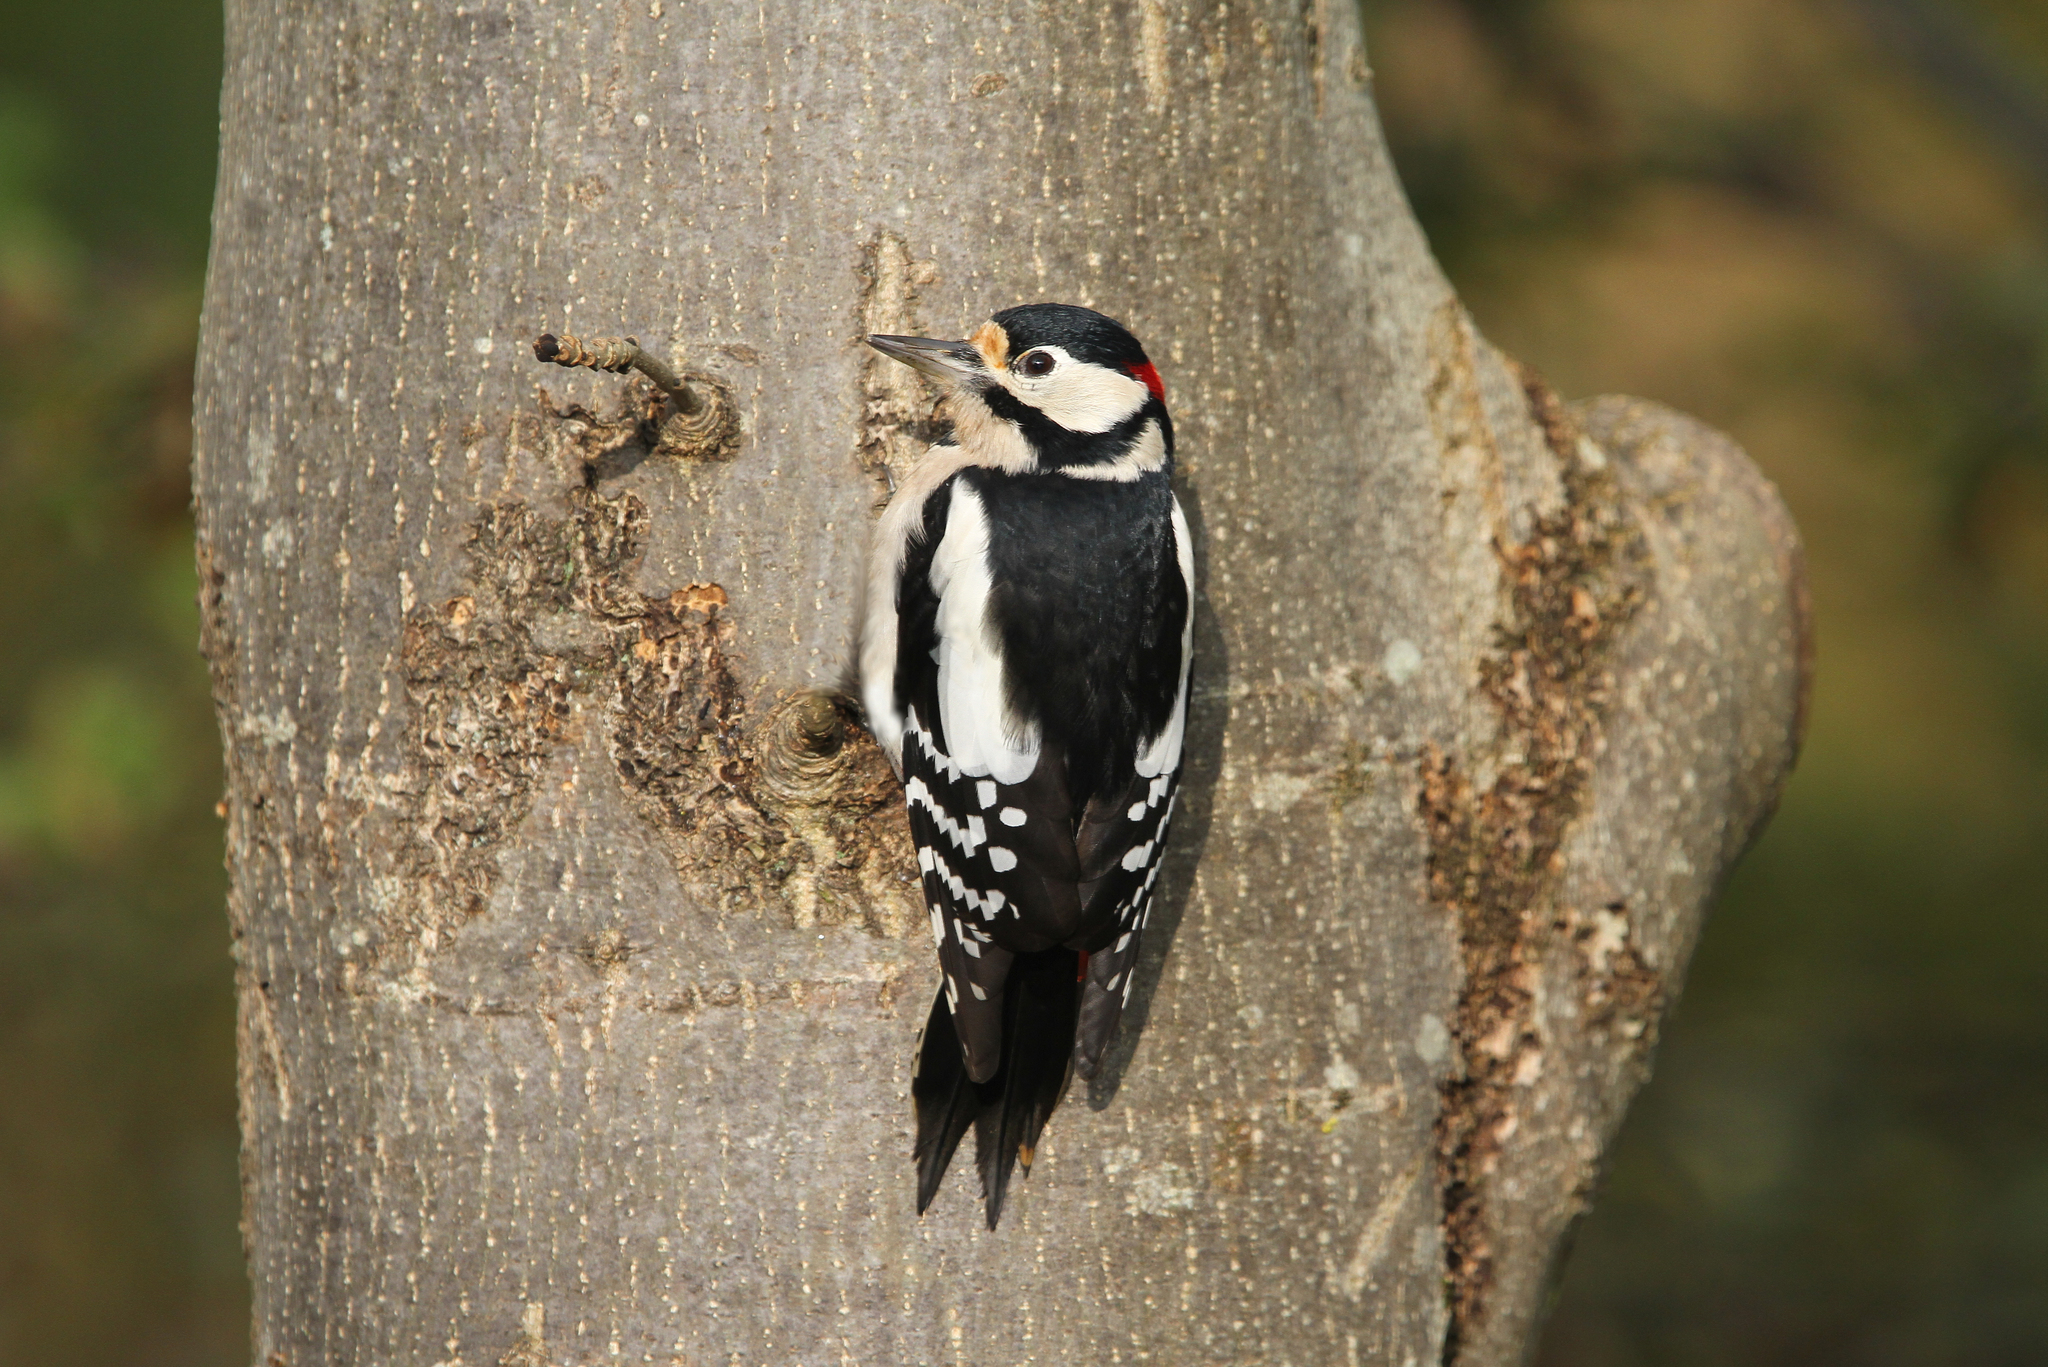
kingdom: Animalia
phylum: Chordata
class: Aves
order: Piciformes
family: Picidae
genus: Dendrocopos
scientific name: Dendrocopos major
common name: Great spotted woodpecker
